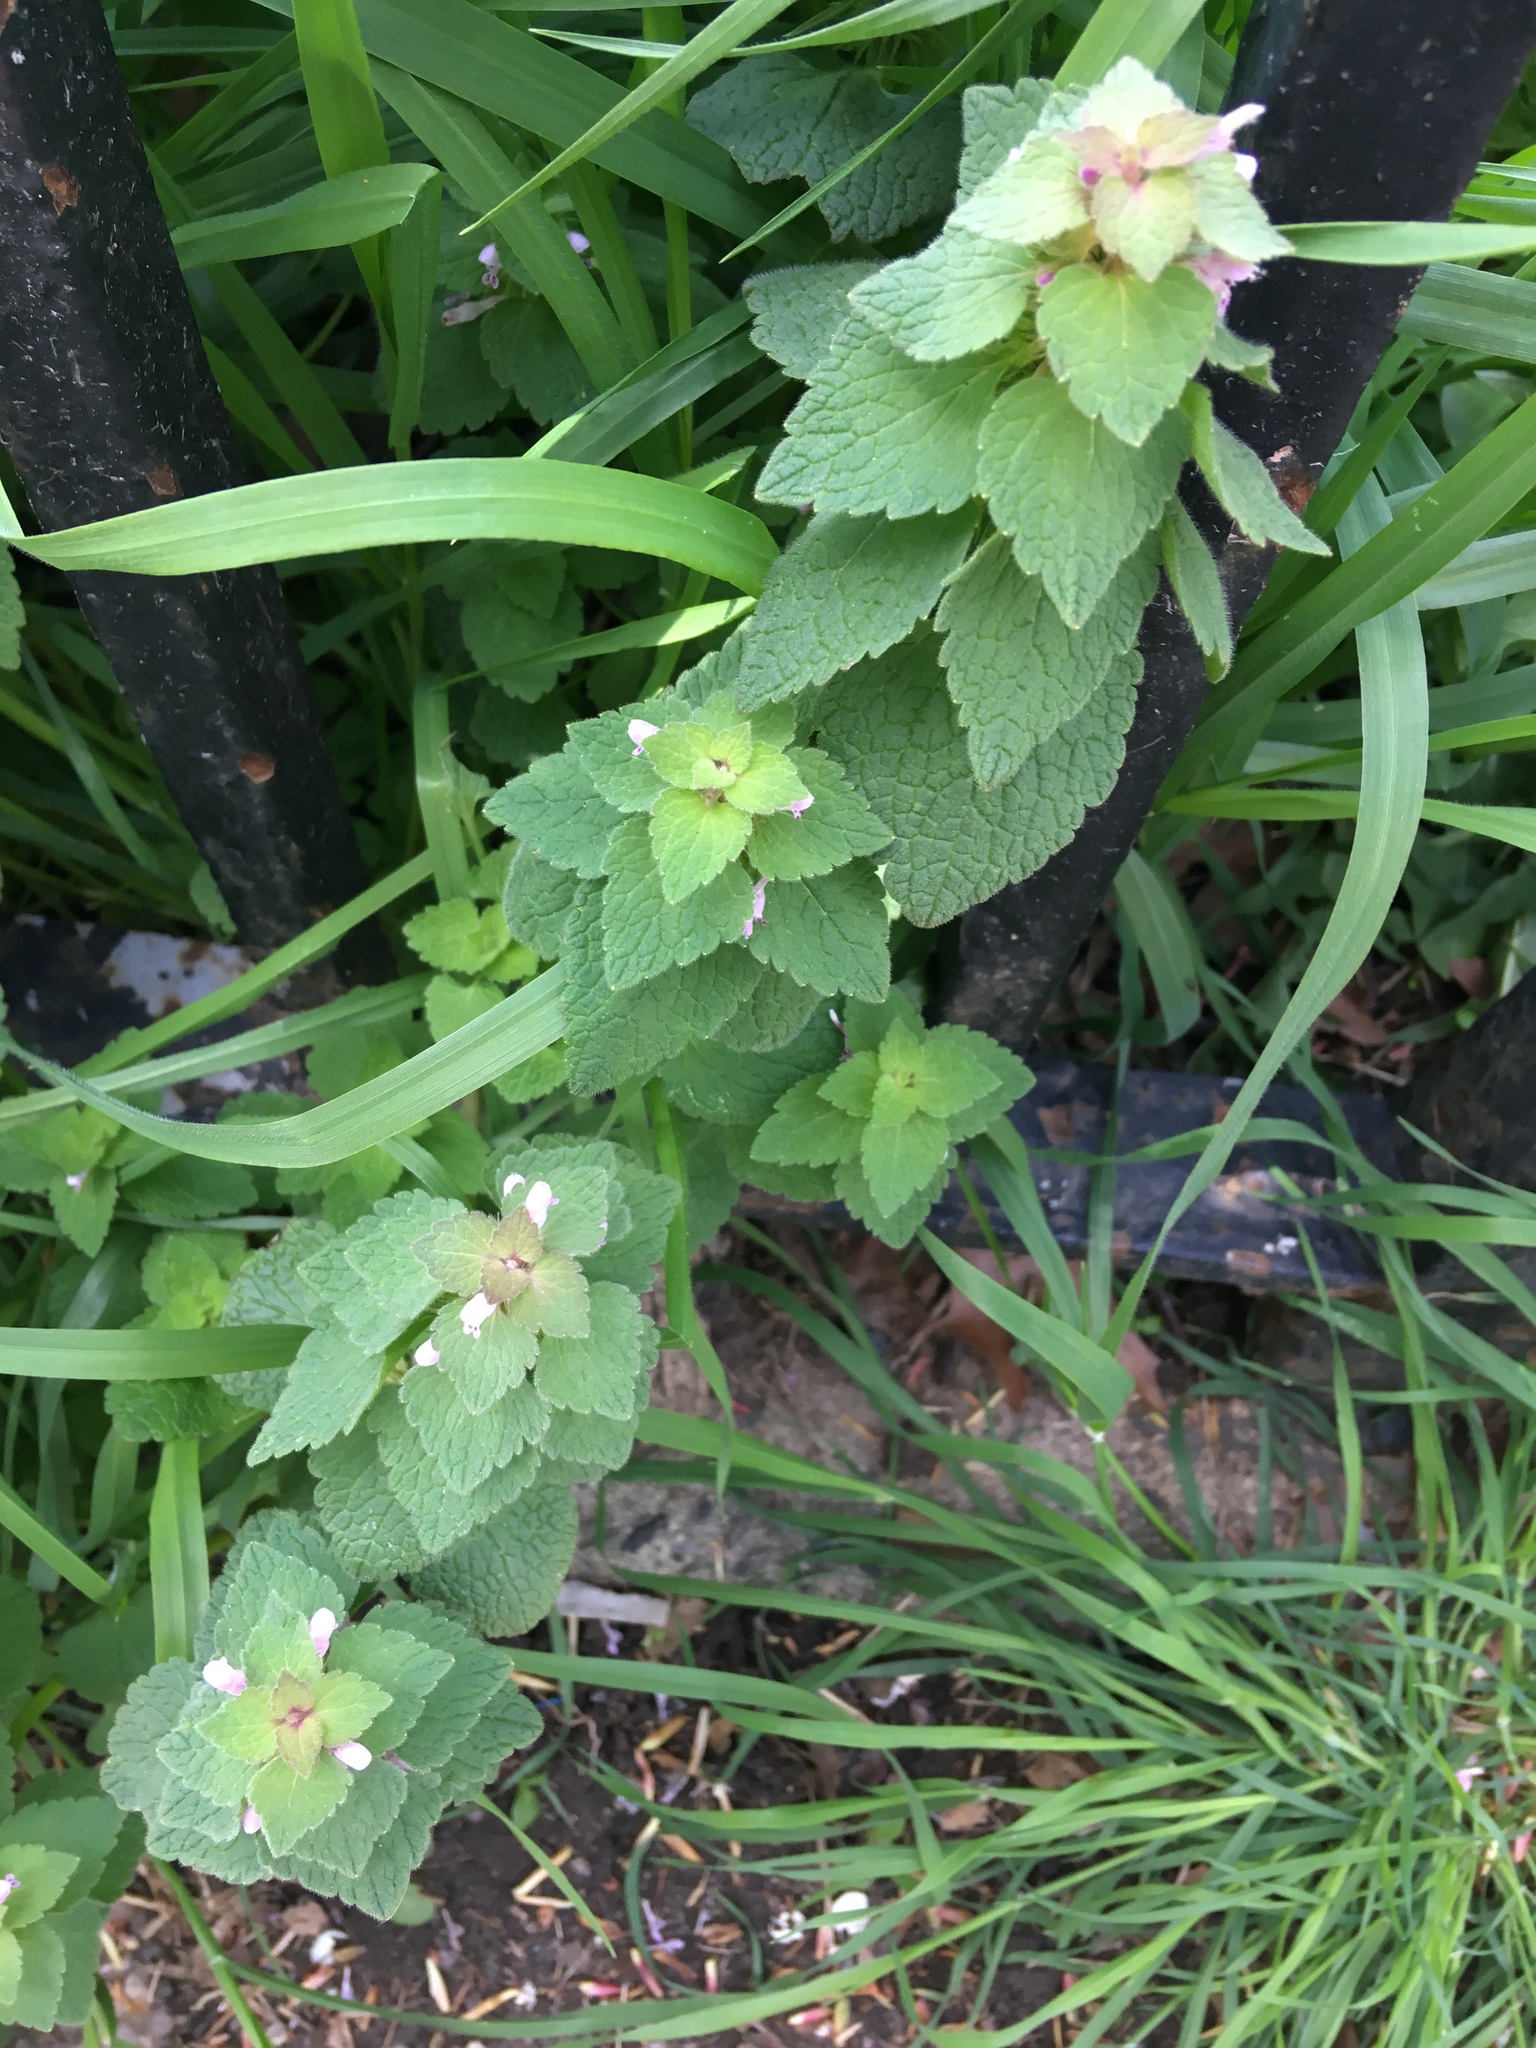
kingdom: Plantae
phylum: Tracheophyta
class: Magnoliopsida
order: Lamiales
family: Lamiaceae
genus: Lamium
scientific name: Lamium purpureum
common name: Red dead-nettle
